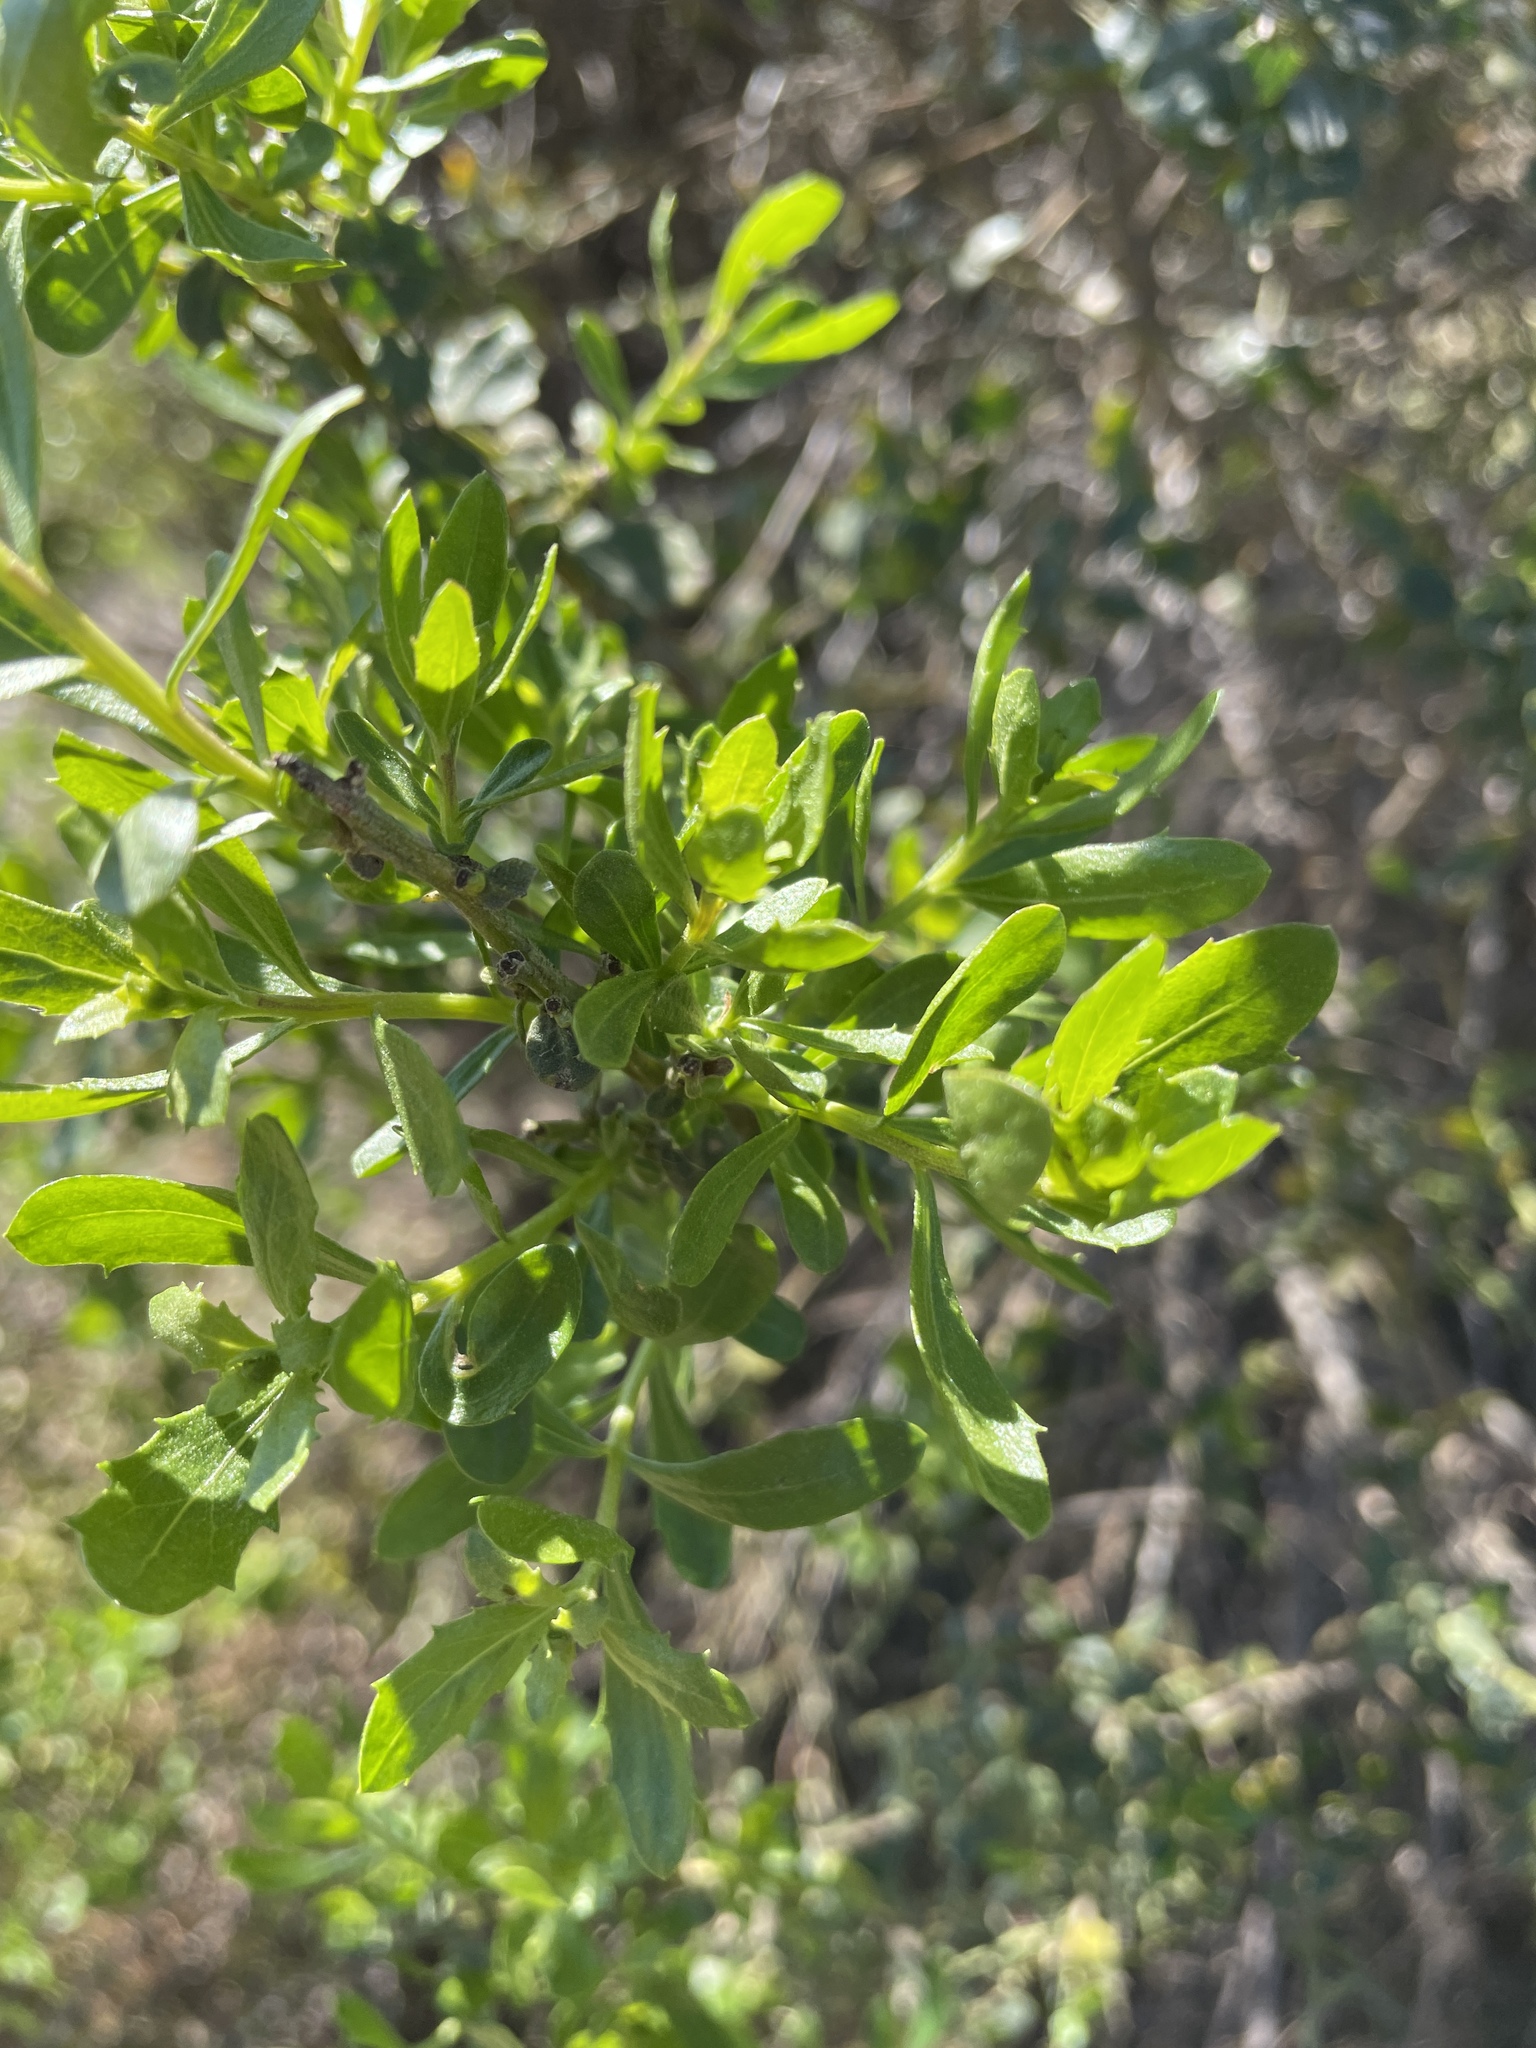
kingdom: Plantae
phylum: Tracheophyta
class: Magnoliopsida
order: Asterales
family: Asteraceae
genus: Baccharis
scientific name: Baccharis pilularis
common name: Coyotebrush
